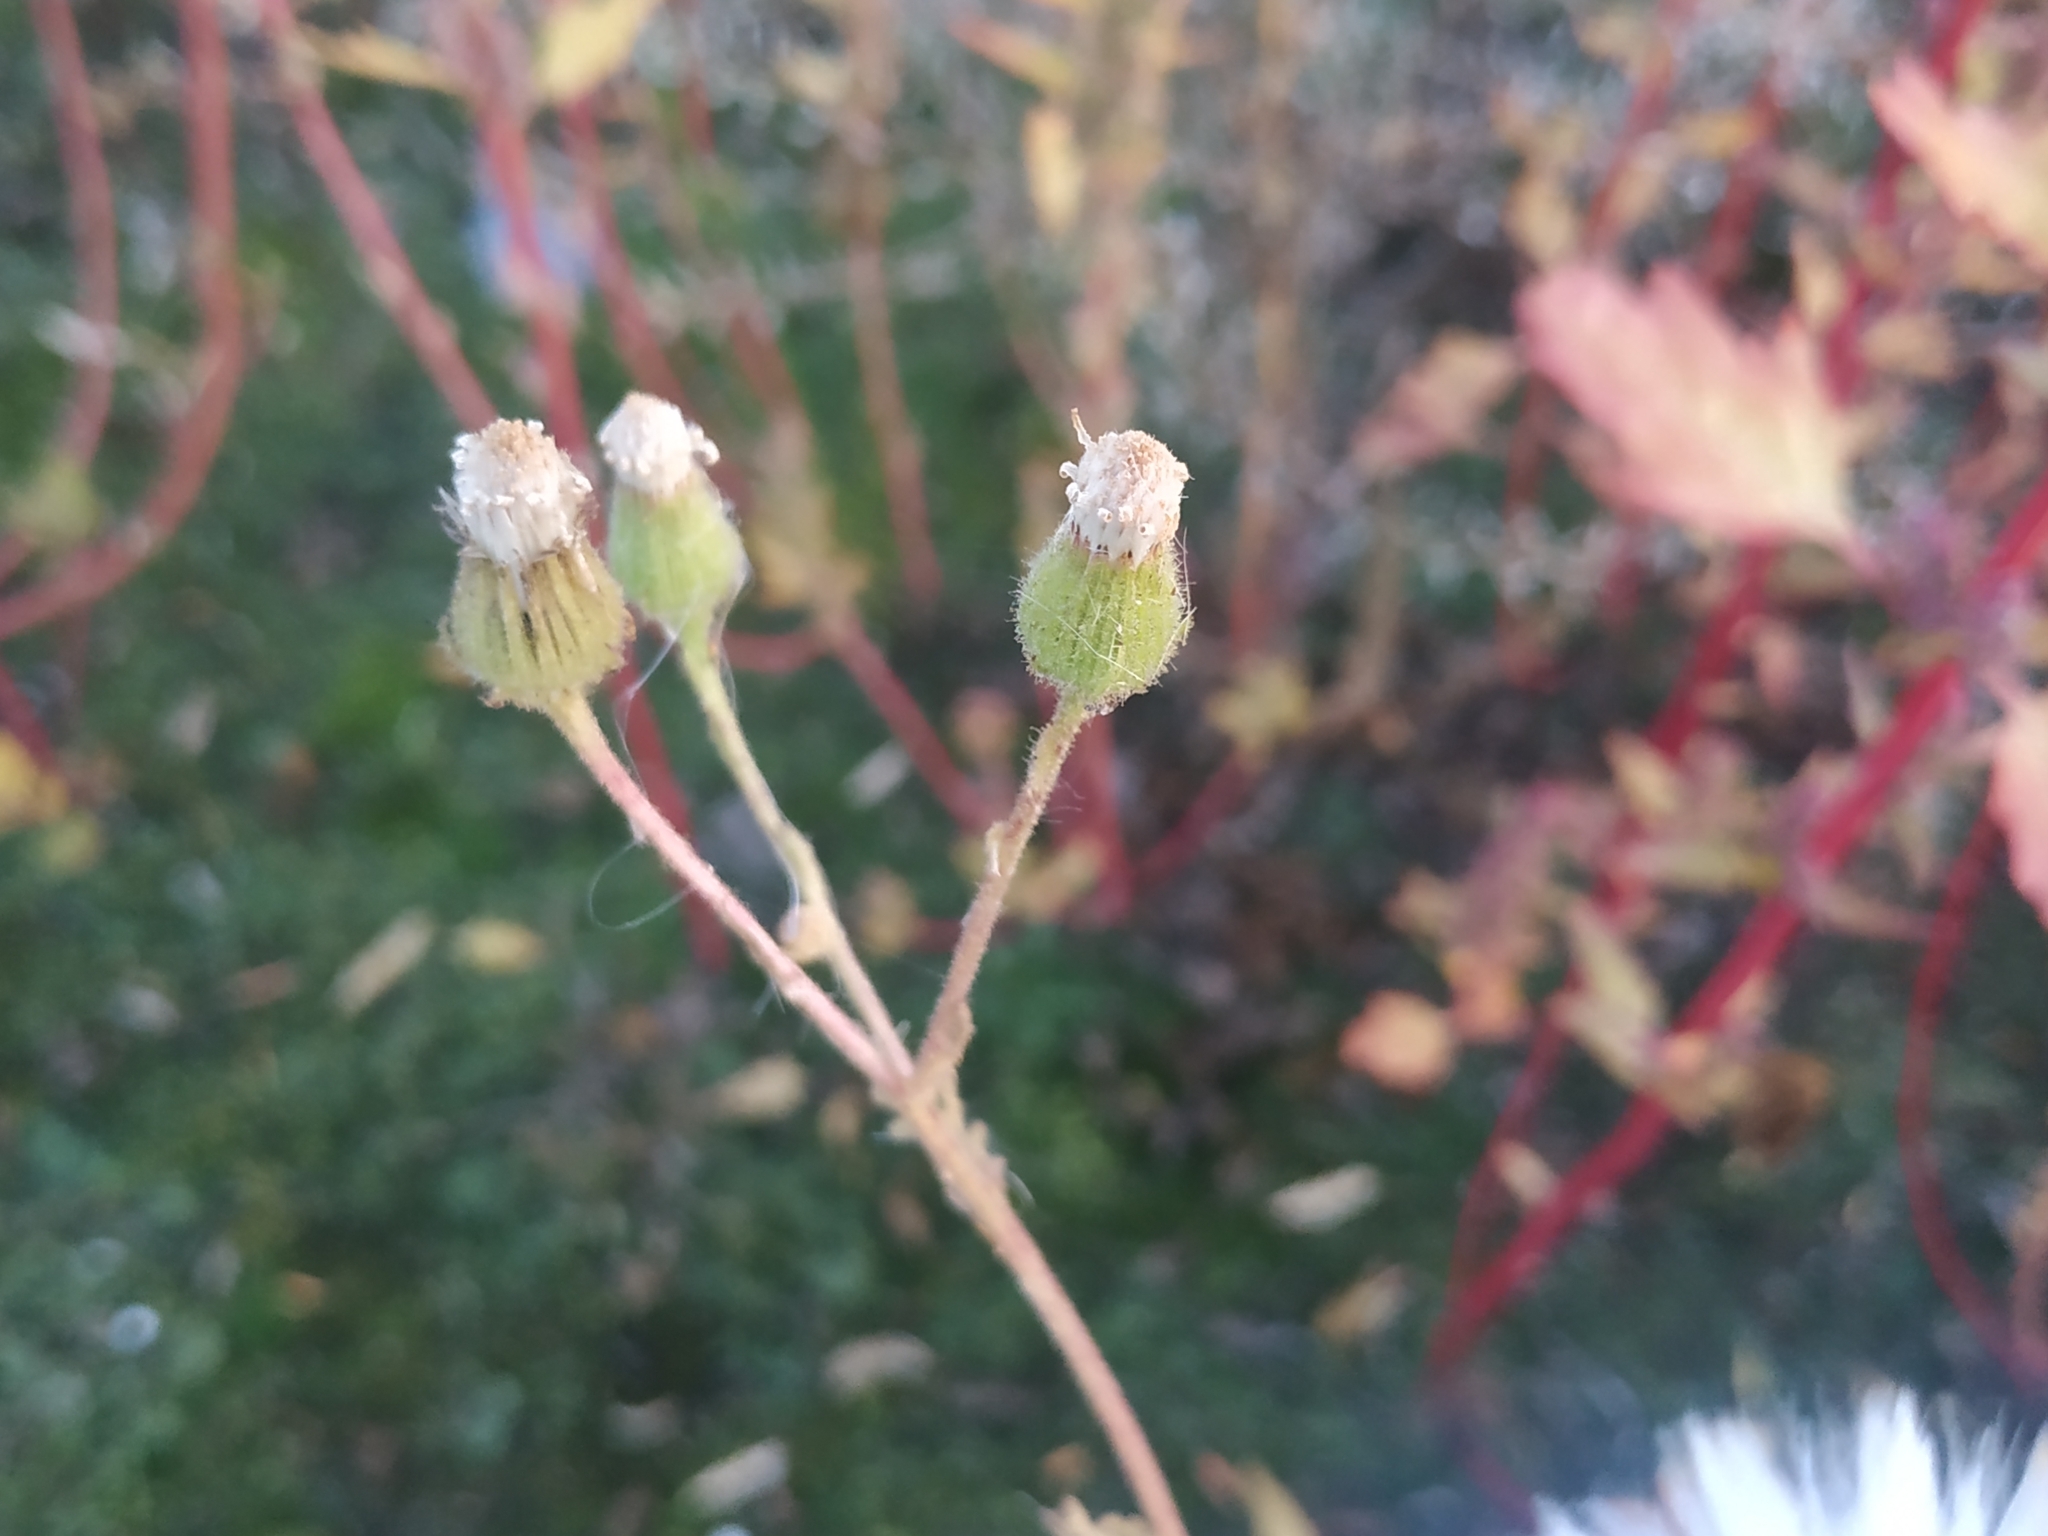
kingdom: Plantae
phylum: Tracheophyta
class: Magnoliopsida
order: Asterales
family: Asteraceae
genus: Senecio
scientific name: Senecio viscosus
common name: Sticky groundsel
